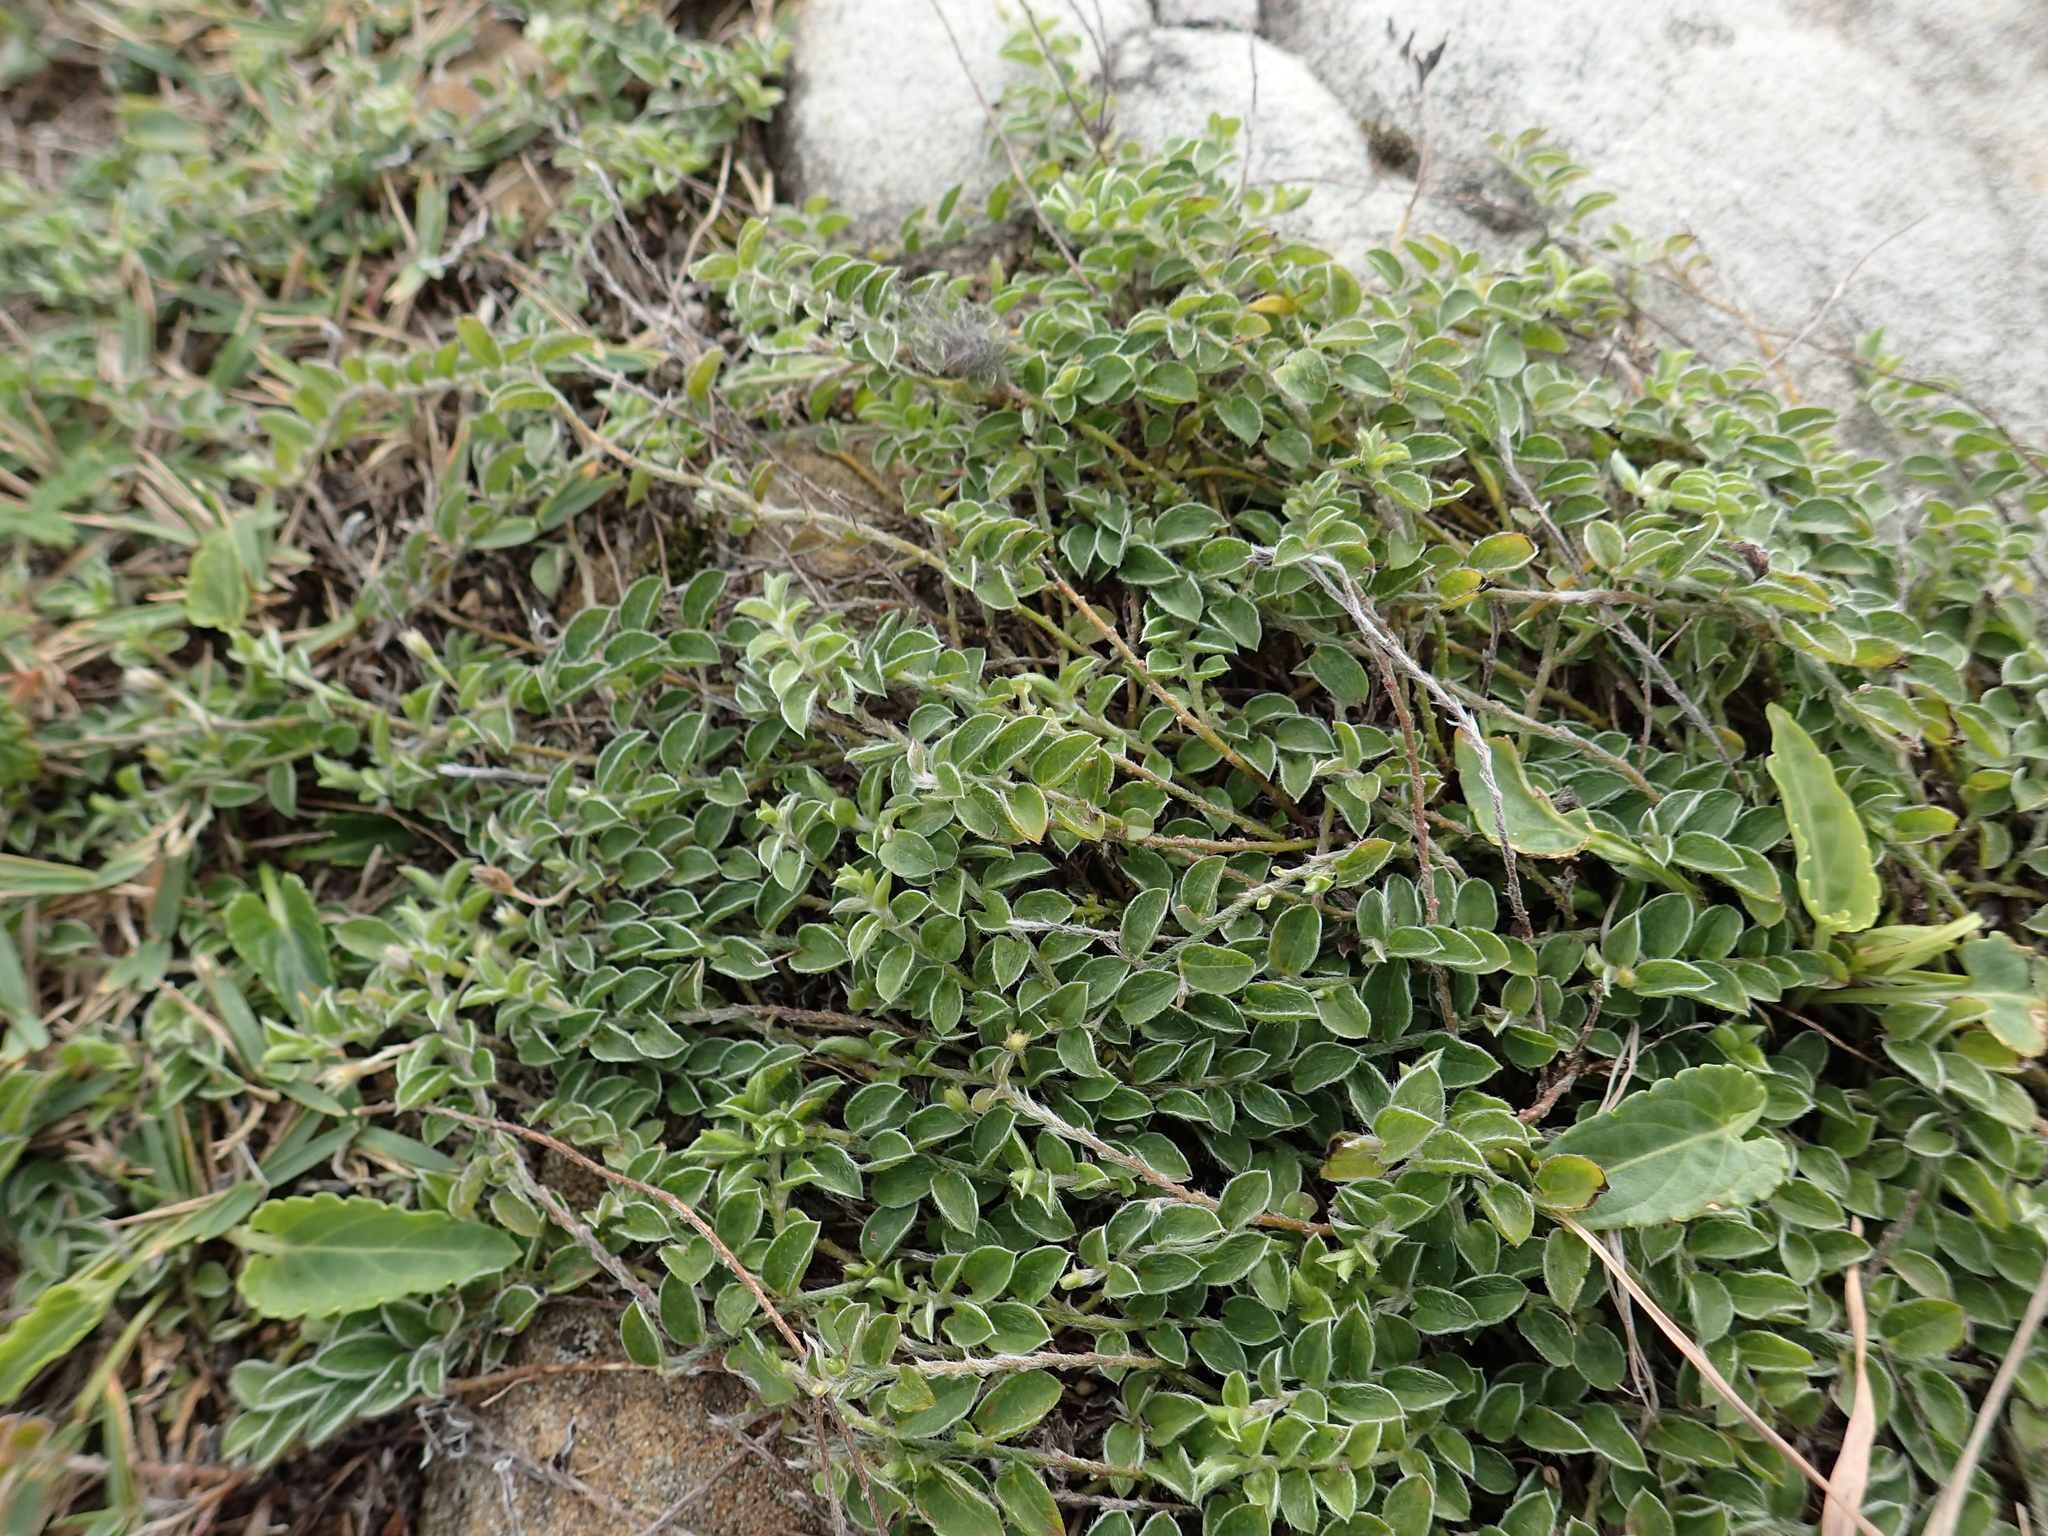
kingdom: Plantae
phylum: Tracheophyta
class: Magnoliopsida
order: Solanales
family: Convolvulaceae
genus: Evolvulus
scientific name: Evolvulus alsinoides
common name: Slender dwarf morning-glory
